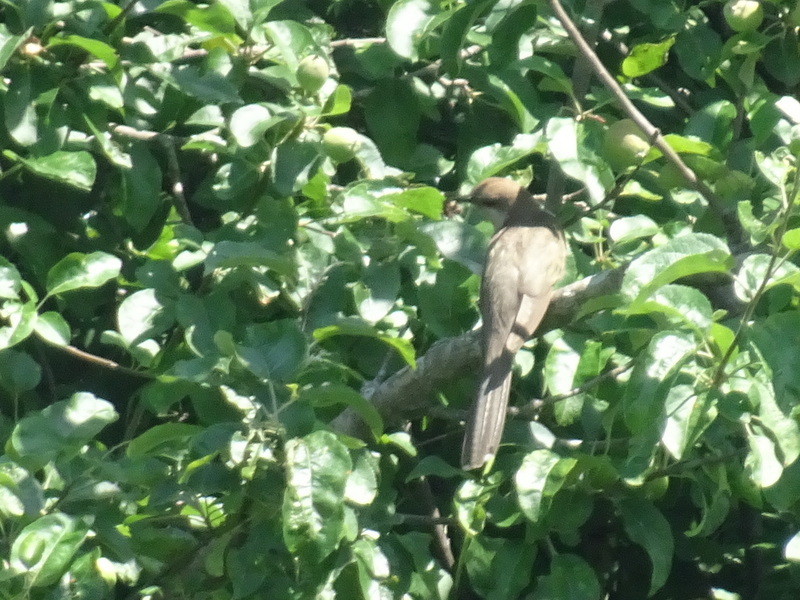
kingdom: Animalia
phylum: Chordata
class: Aves
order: Cuculiformes
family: Cuculidae
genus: Coccyzus
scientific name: Coccyzus erythropthalmus
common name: Black-billed cuckoo
